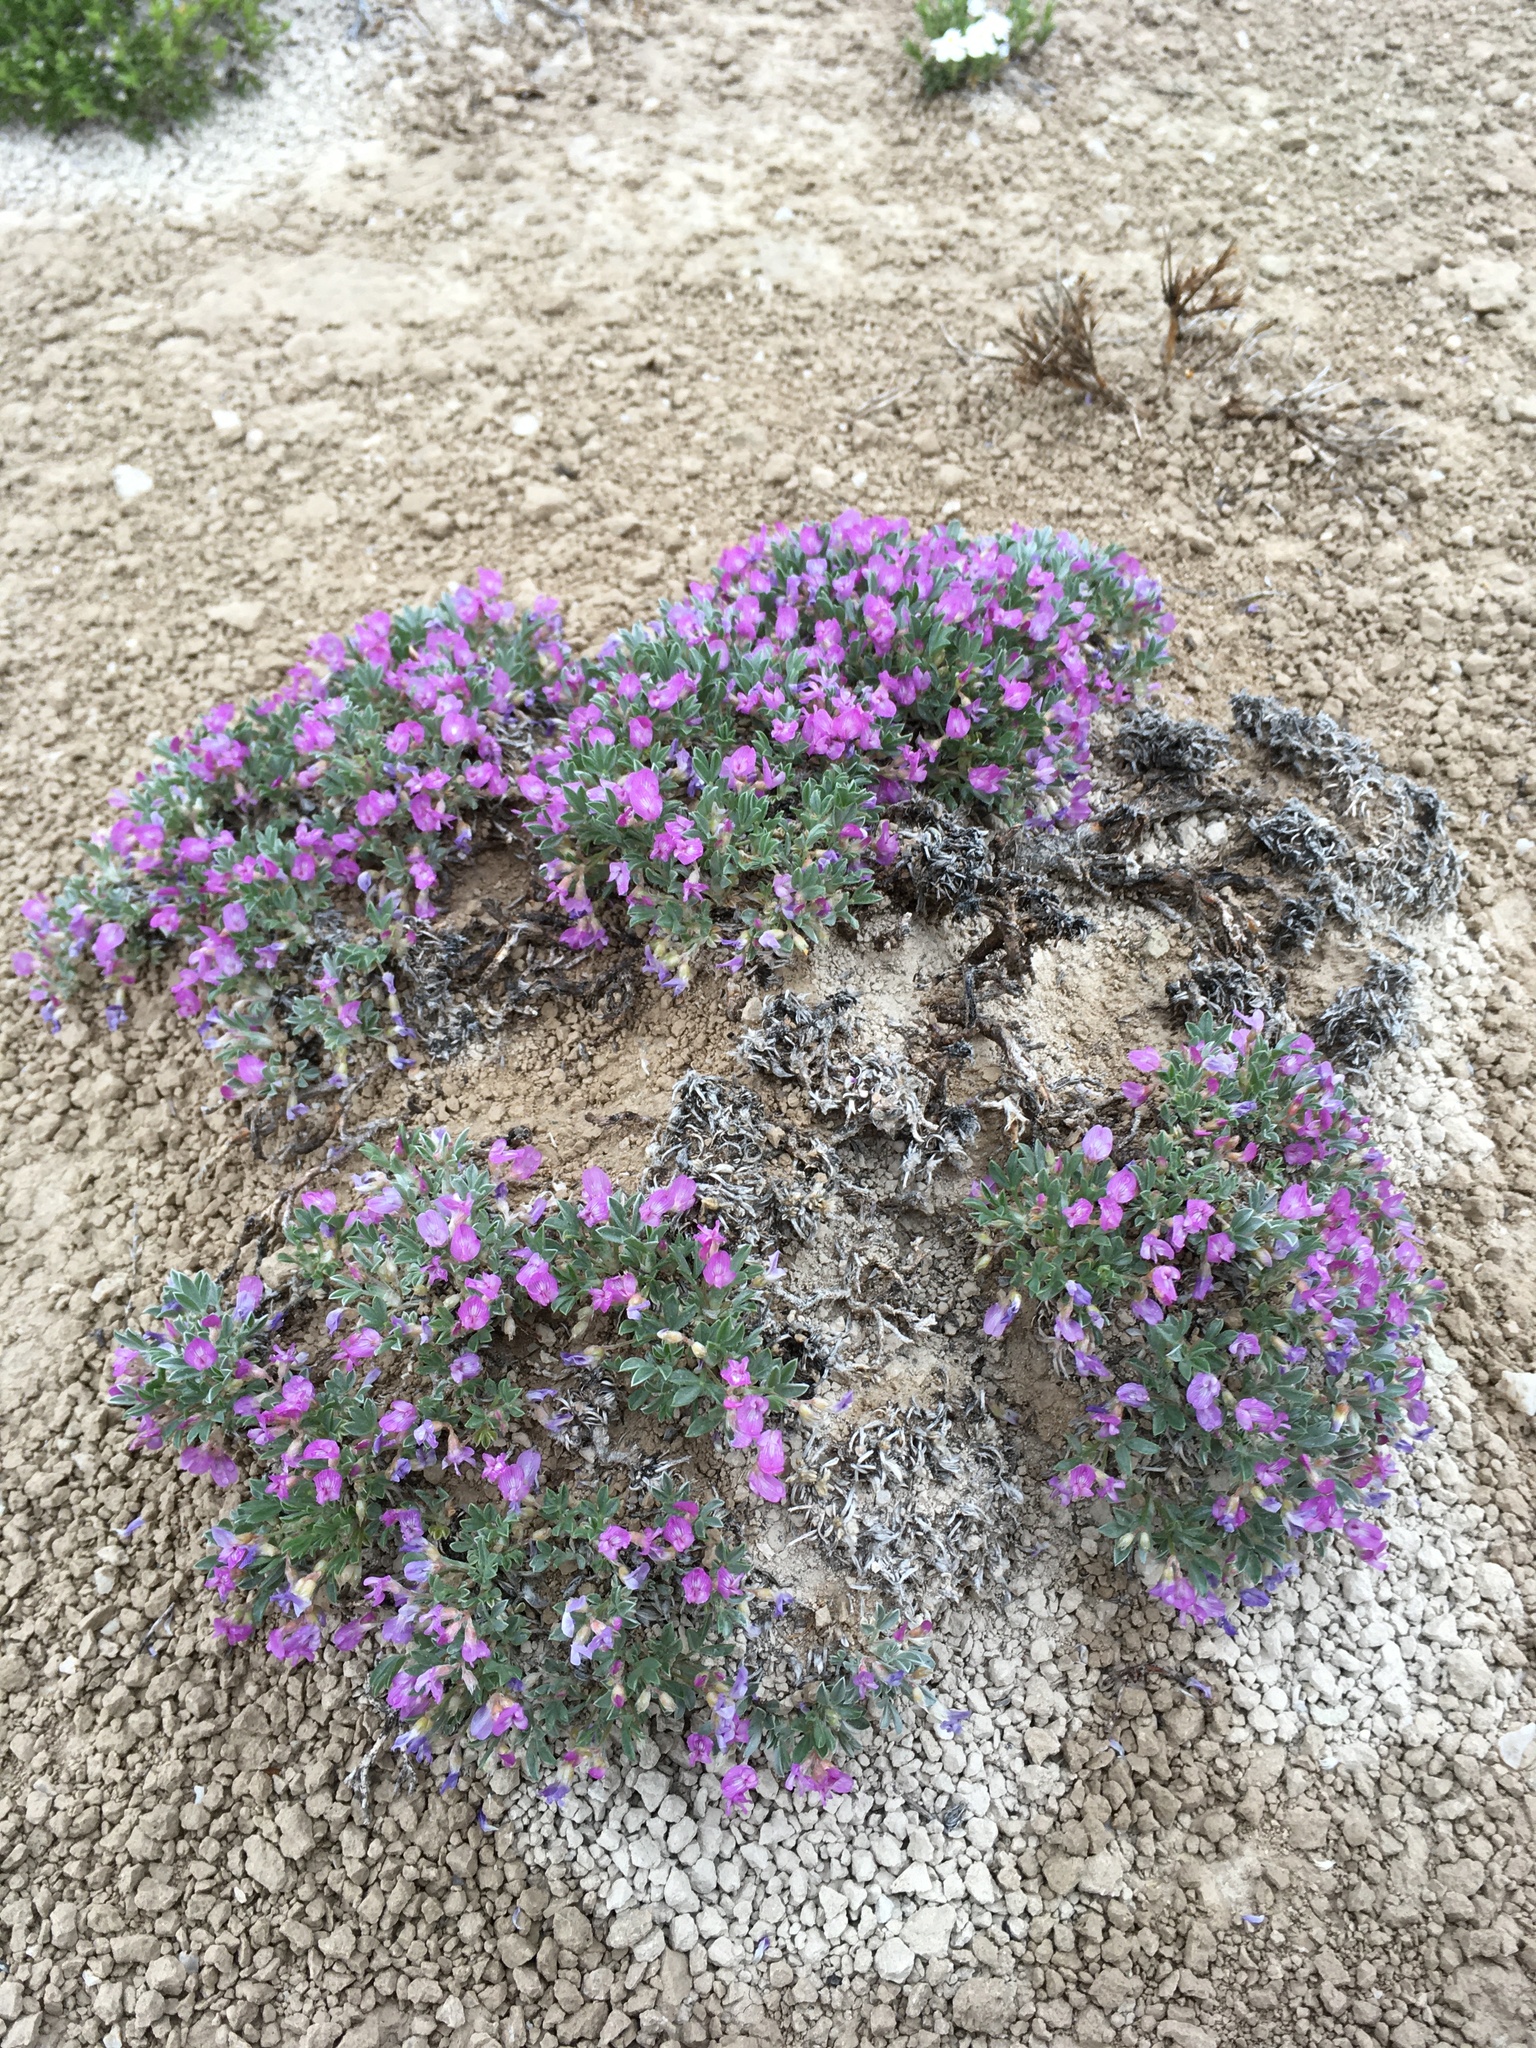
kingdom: Plantae
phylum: Tracheophyta
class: Magnoliopsida
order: Fabales
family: Fabaceae
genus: Astragalus
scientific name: Astragalus sericoleucus
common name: Silky orophaca
